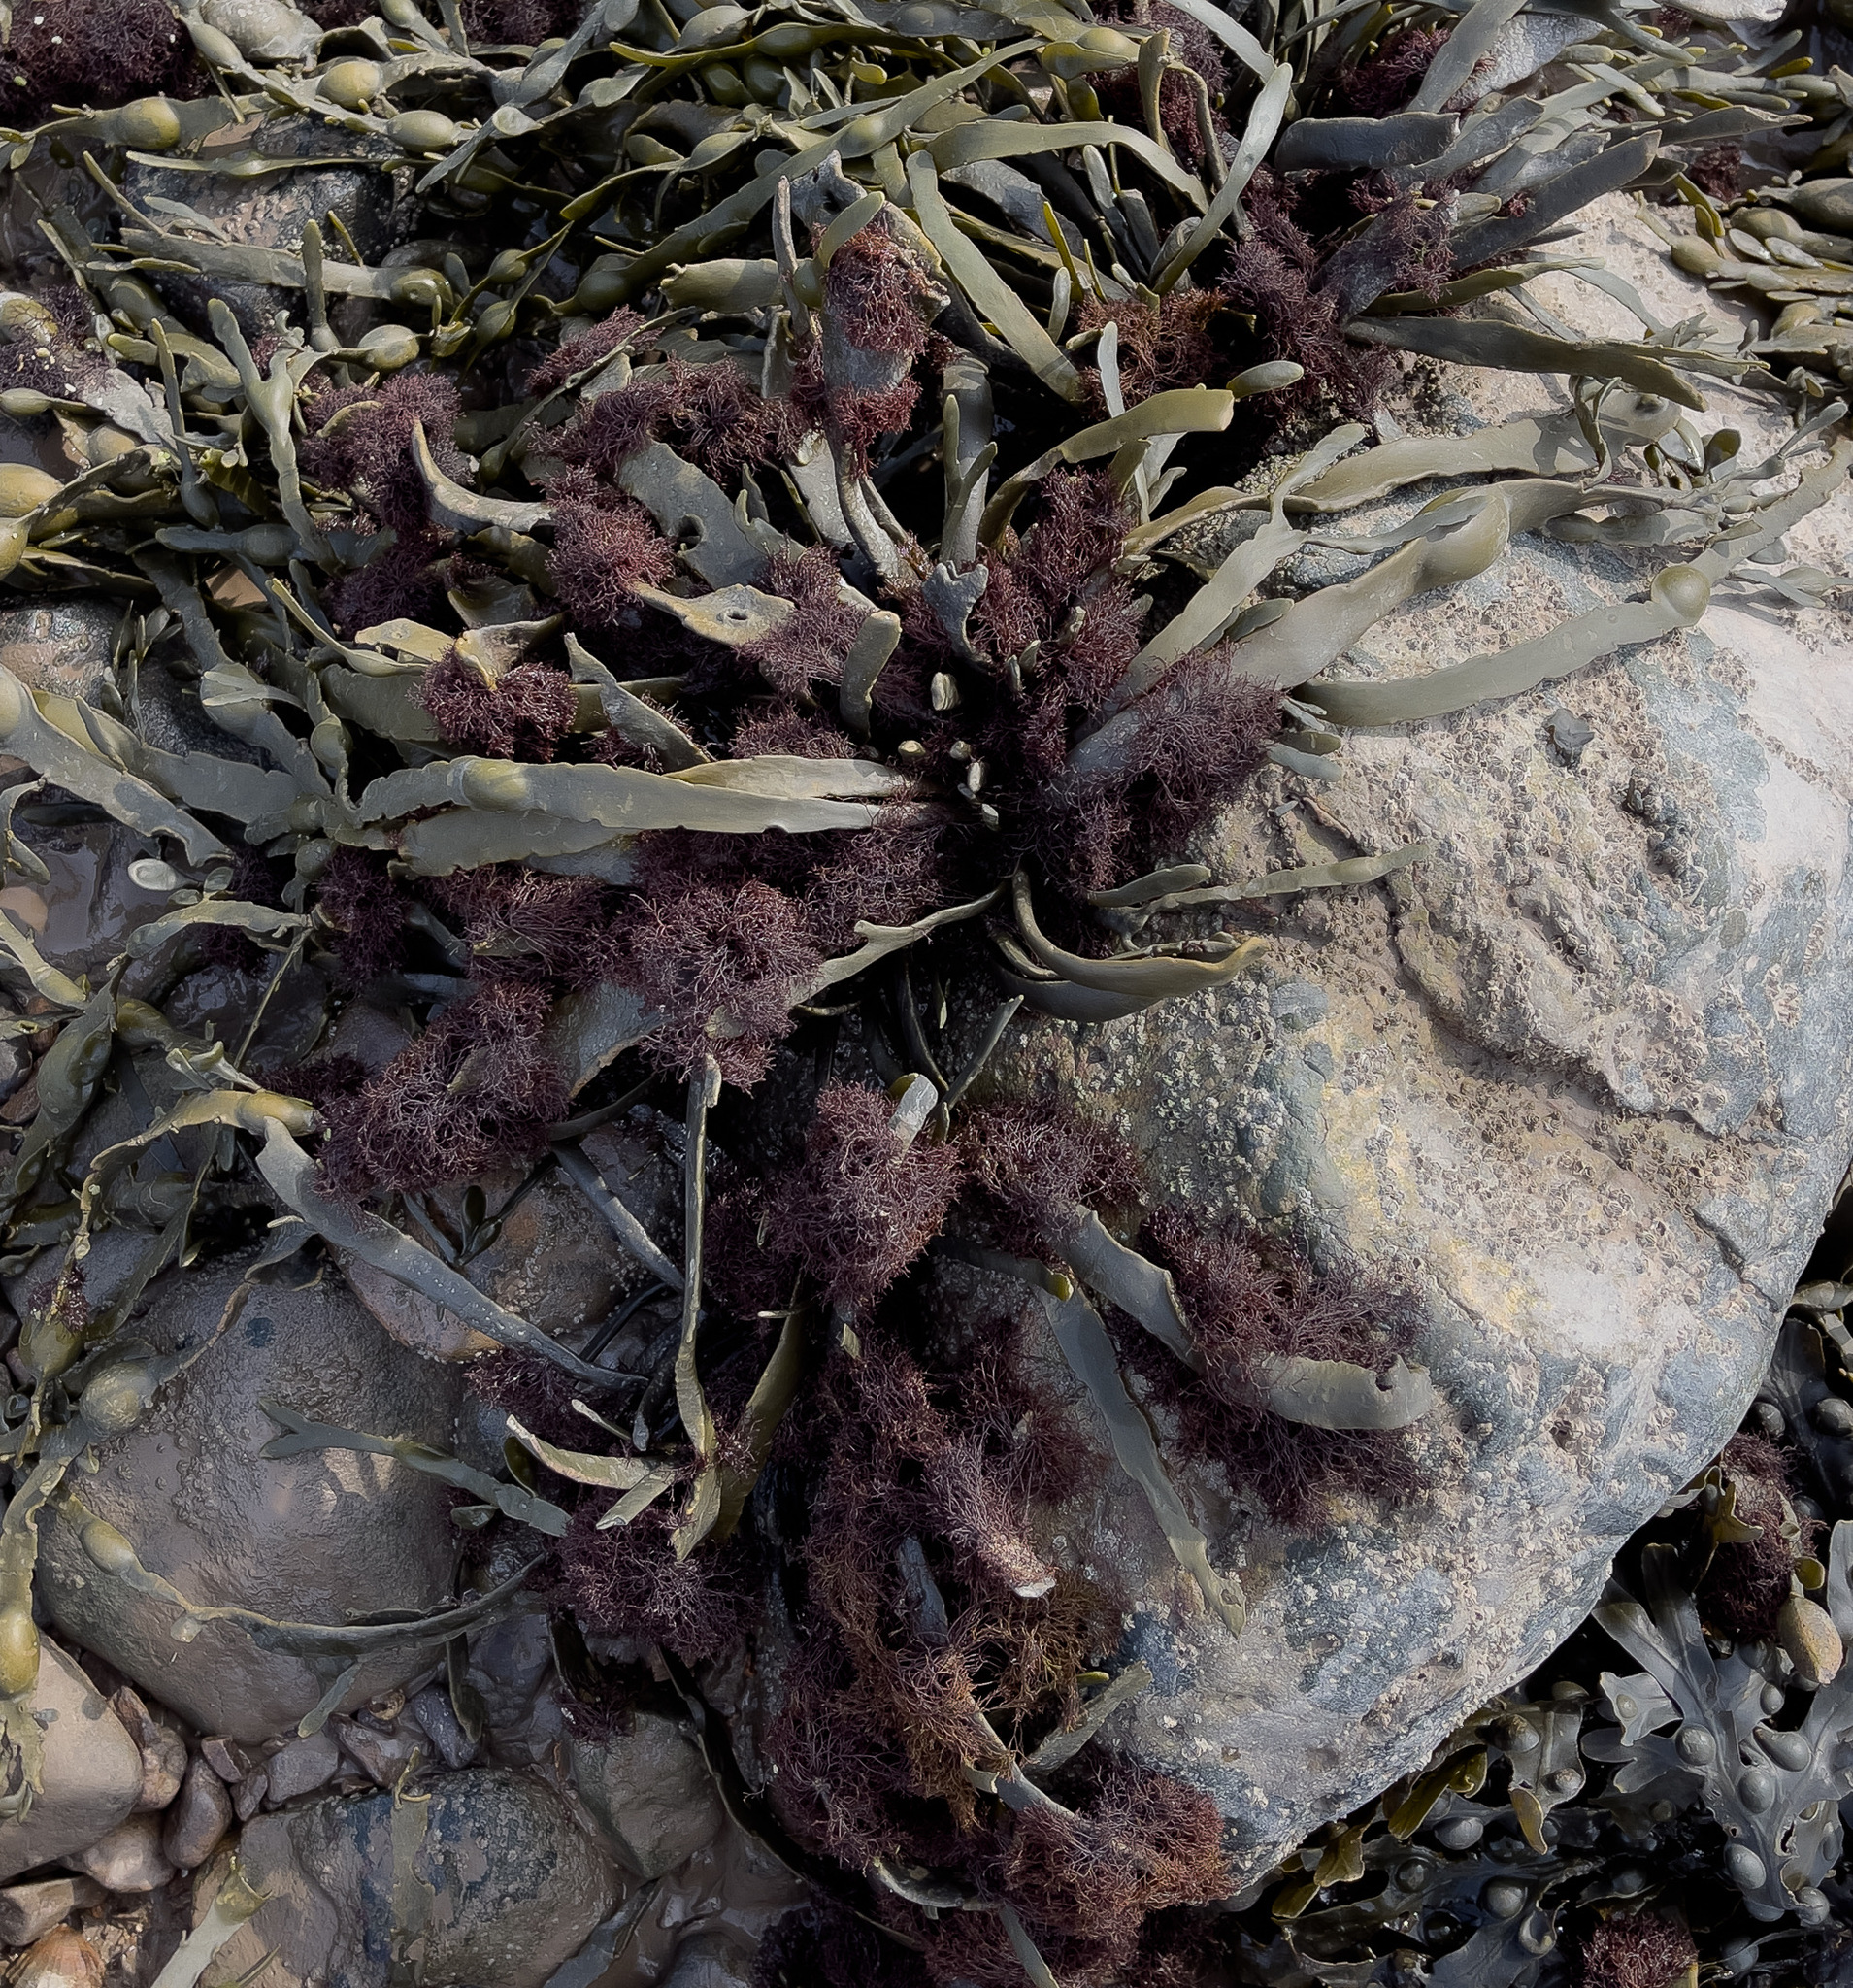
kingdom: Plantae
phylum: Rhodophyta
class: Florideophyceae
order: Ceramiales
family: Rhodomelaceae
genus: Vertebrata
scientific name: Vertebrata lanosa
